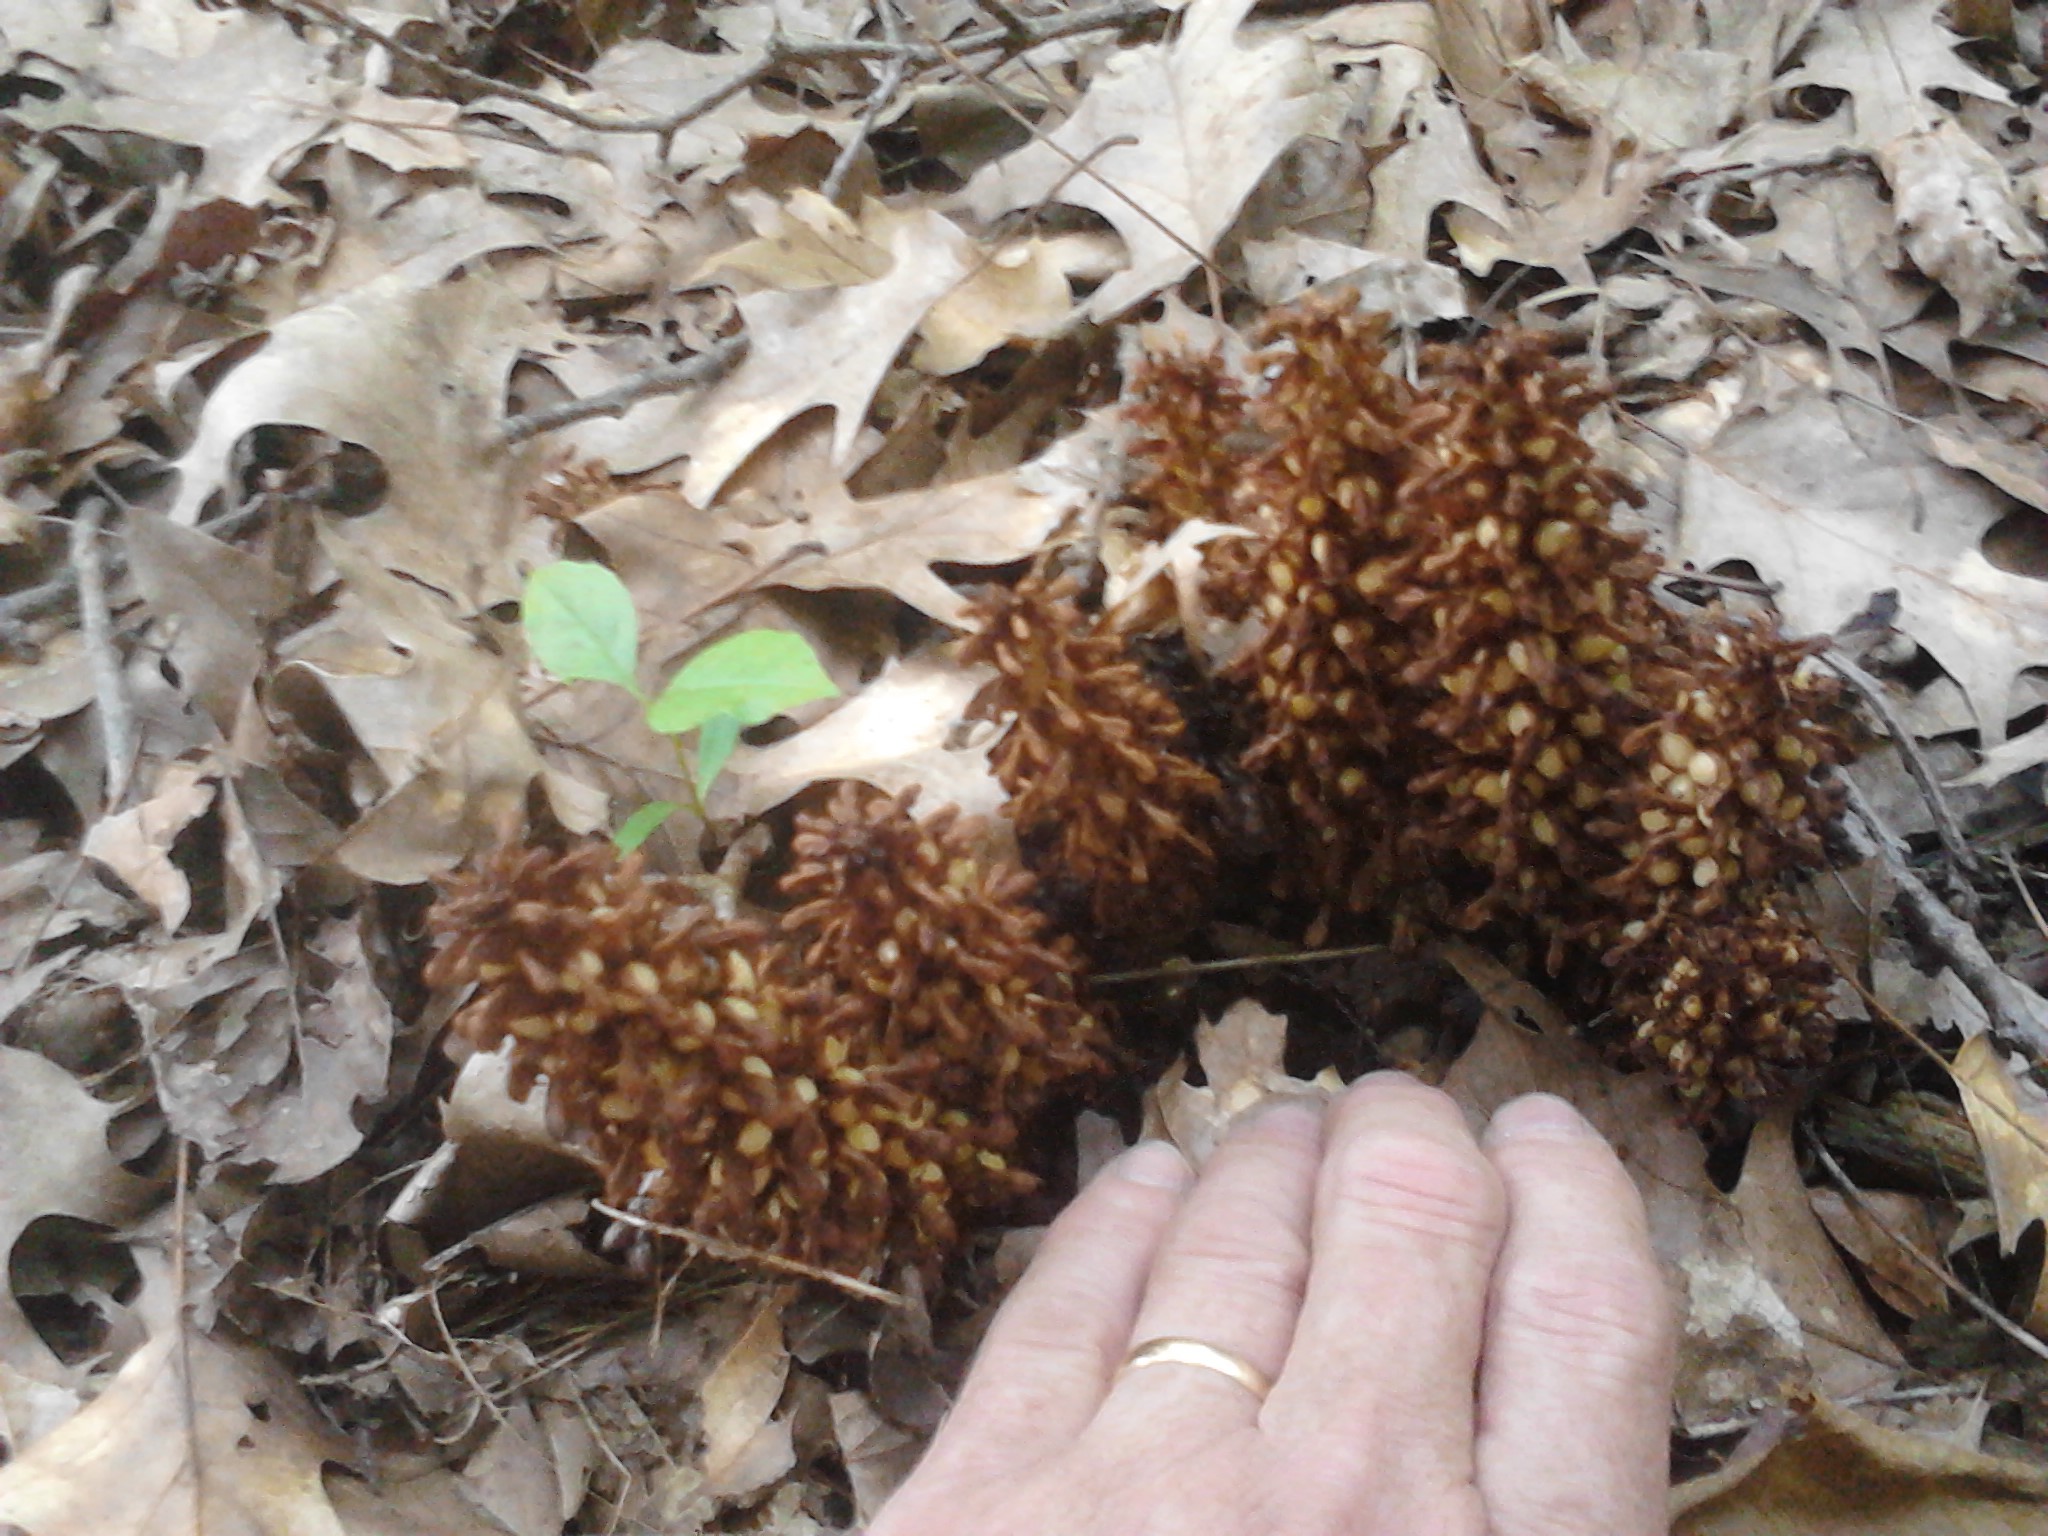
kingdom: Plantae
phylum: Tracheophyta
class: Magnoliopsida
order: Lamiales
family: Orobanchaceae
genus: Conopholis
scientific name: Conopholis americana
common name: American cancer-root
